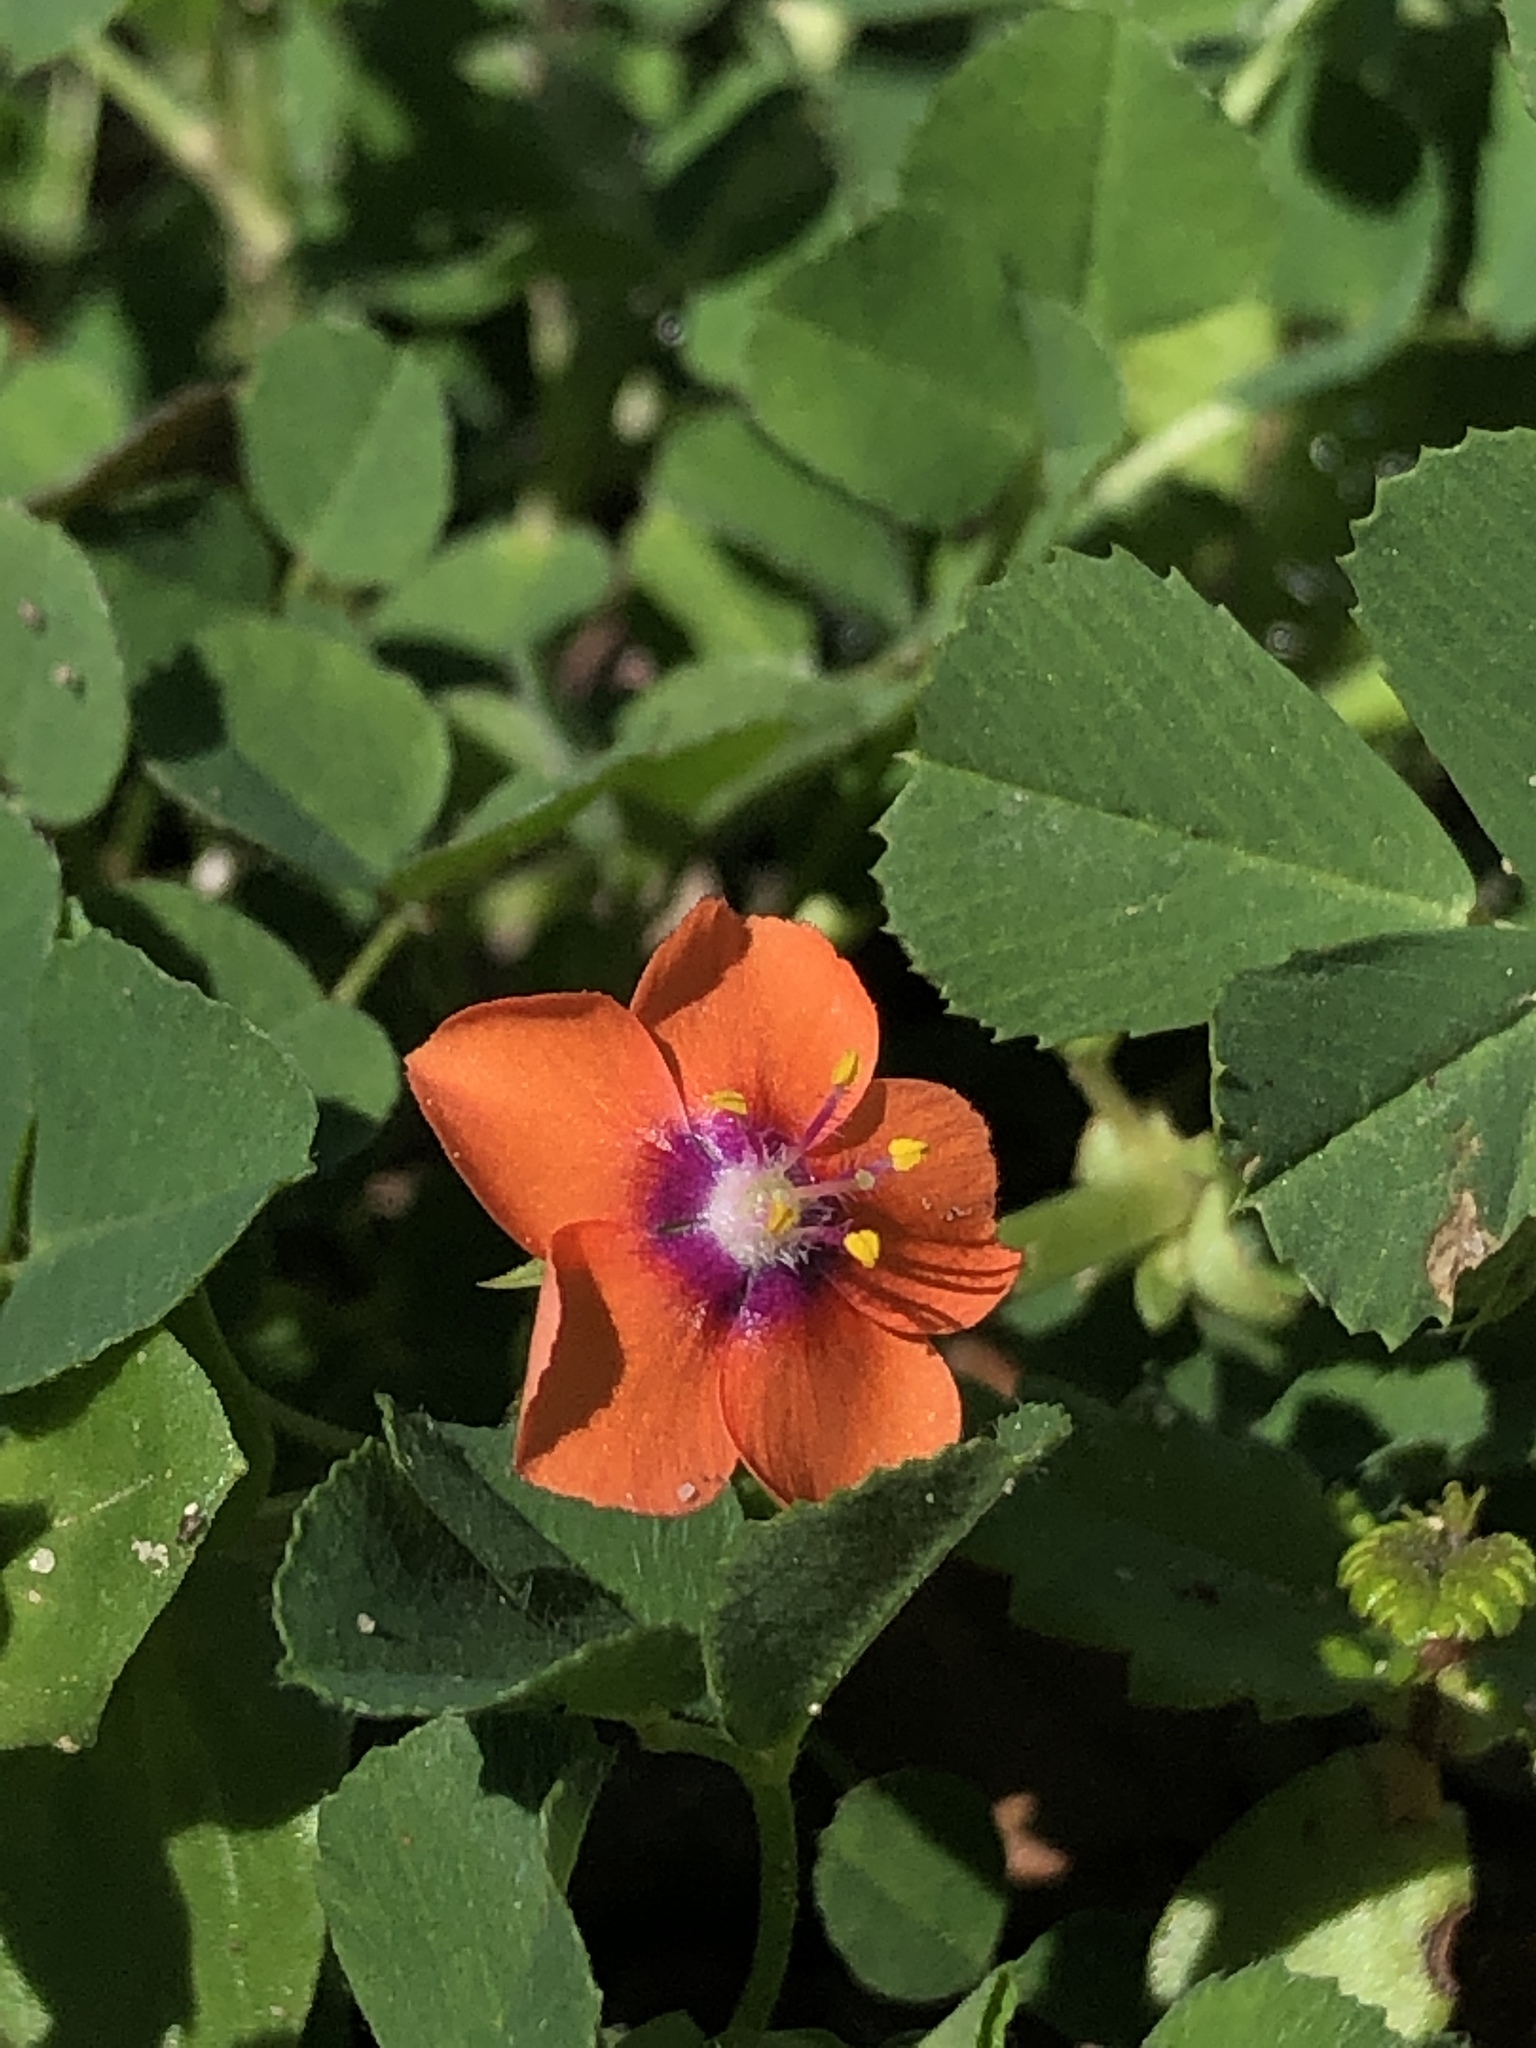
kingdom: Plantae
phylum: Tracheophyta
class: Magnoliopsida
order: Ericales
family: Primulaceae
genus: Lysimachia
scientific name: Lysimachia arvensis
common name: Scarlet pimpernel
